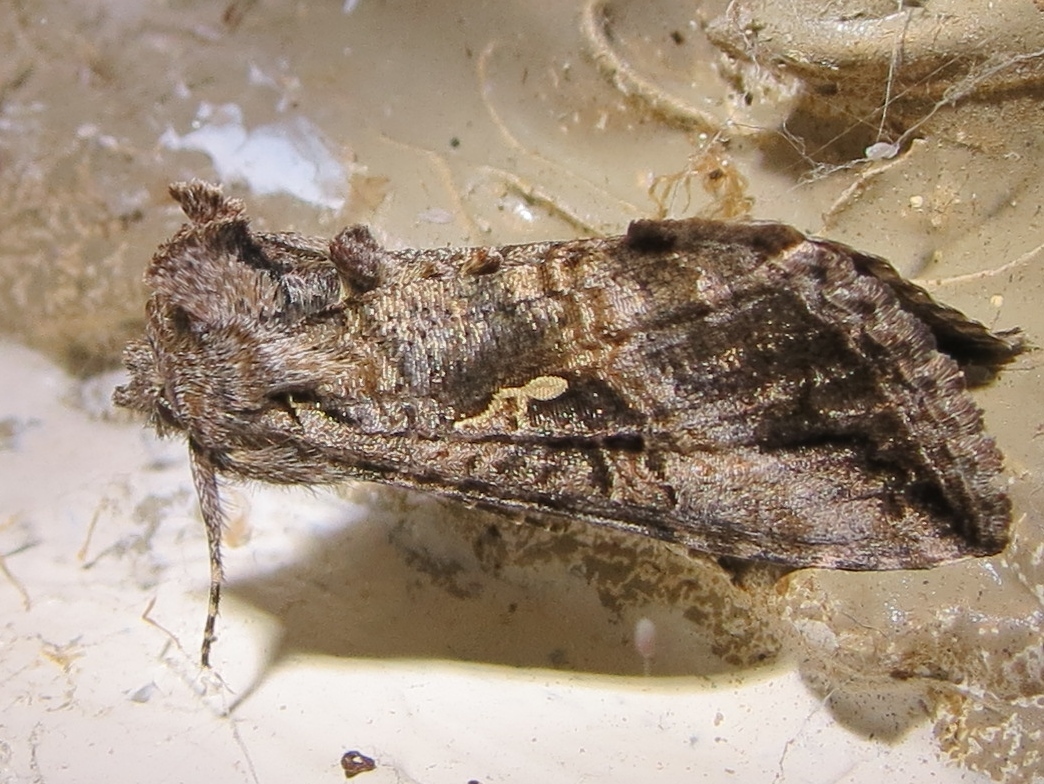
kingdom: Animalia
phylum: Arthropoda
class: Insecta
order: Lepidoptera
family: Noctuidae
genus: Rachiplusia
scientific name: Rachiplusia ou
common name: Gray looper moth
